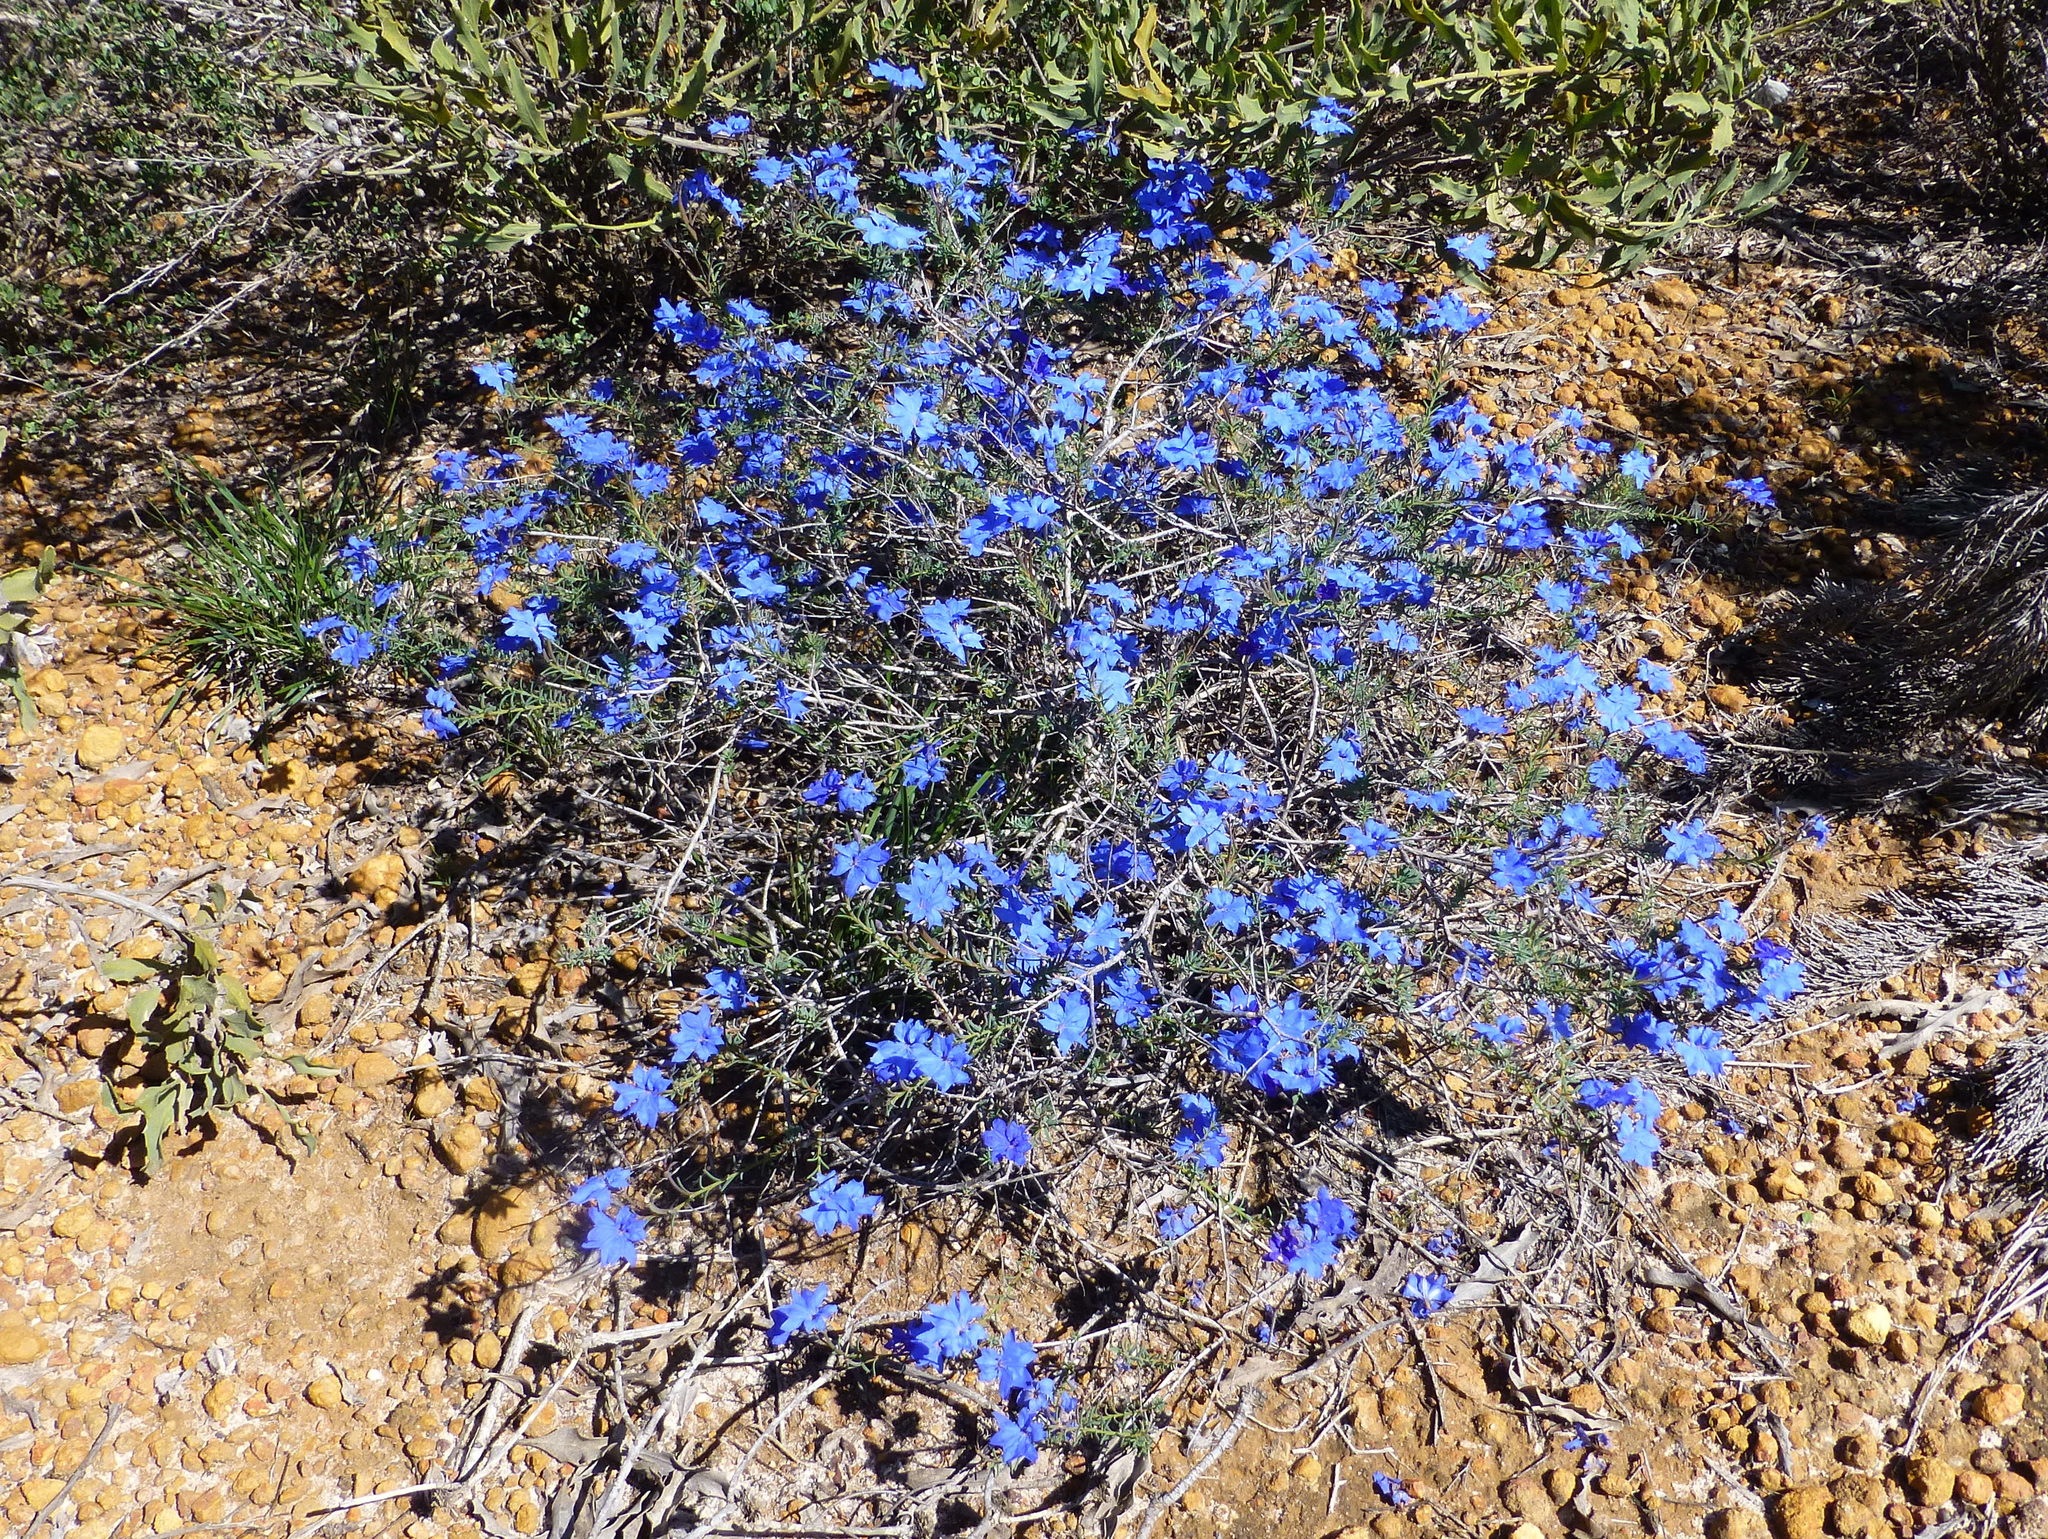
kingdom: Plantae
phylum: Tracheophyta
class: Magnoliopsida
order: Asterales
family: Goodeniaceae
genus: Lechenaultia
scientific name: Lechenaultia biloba
